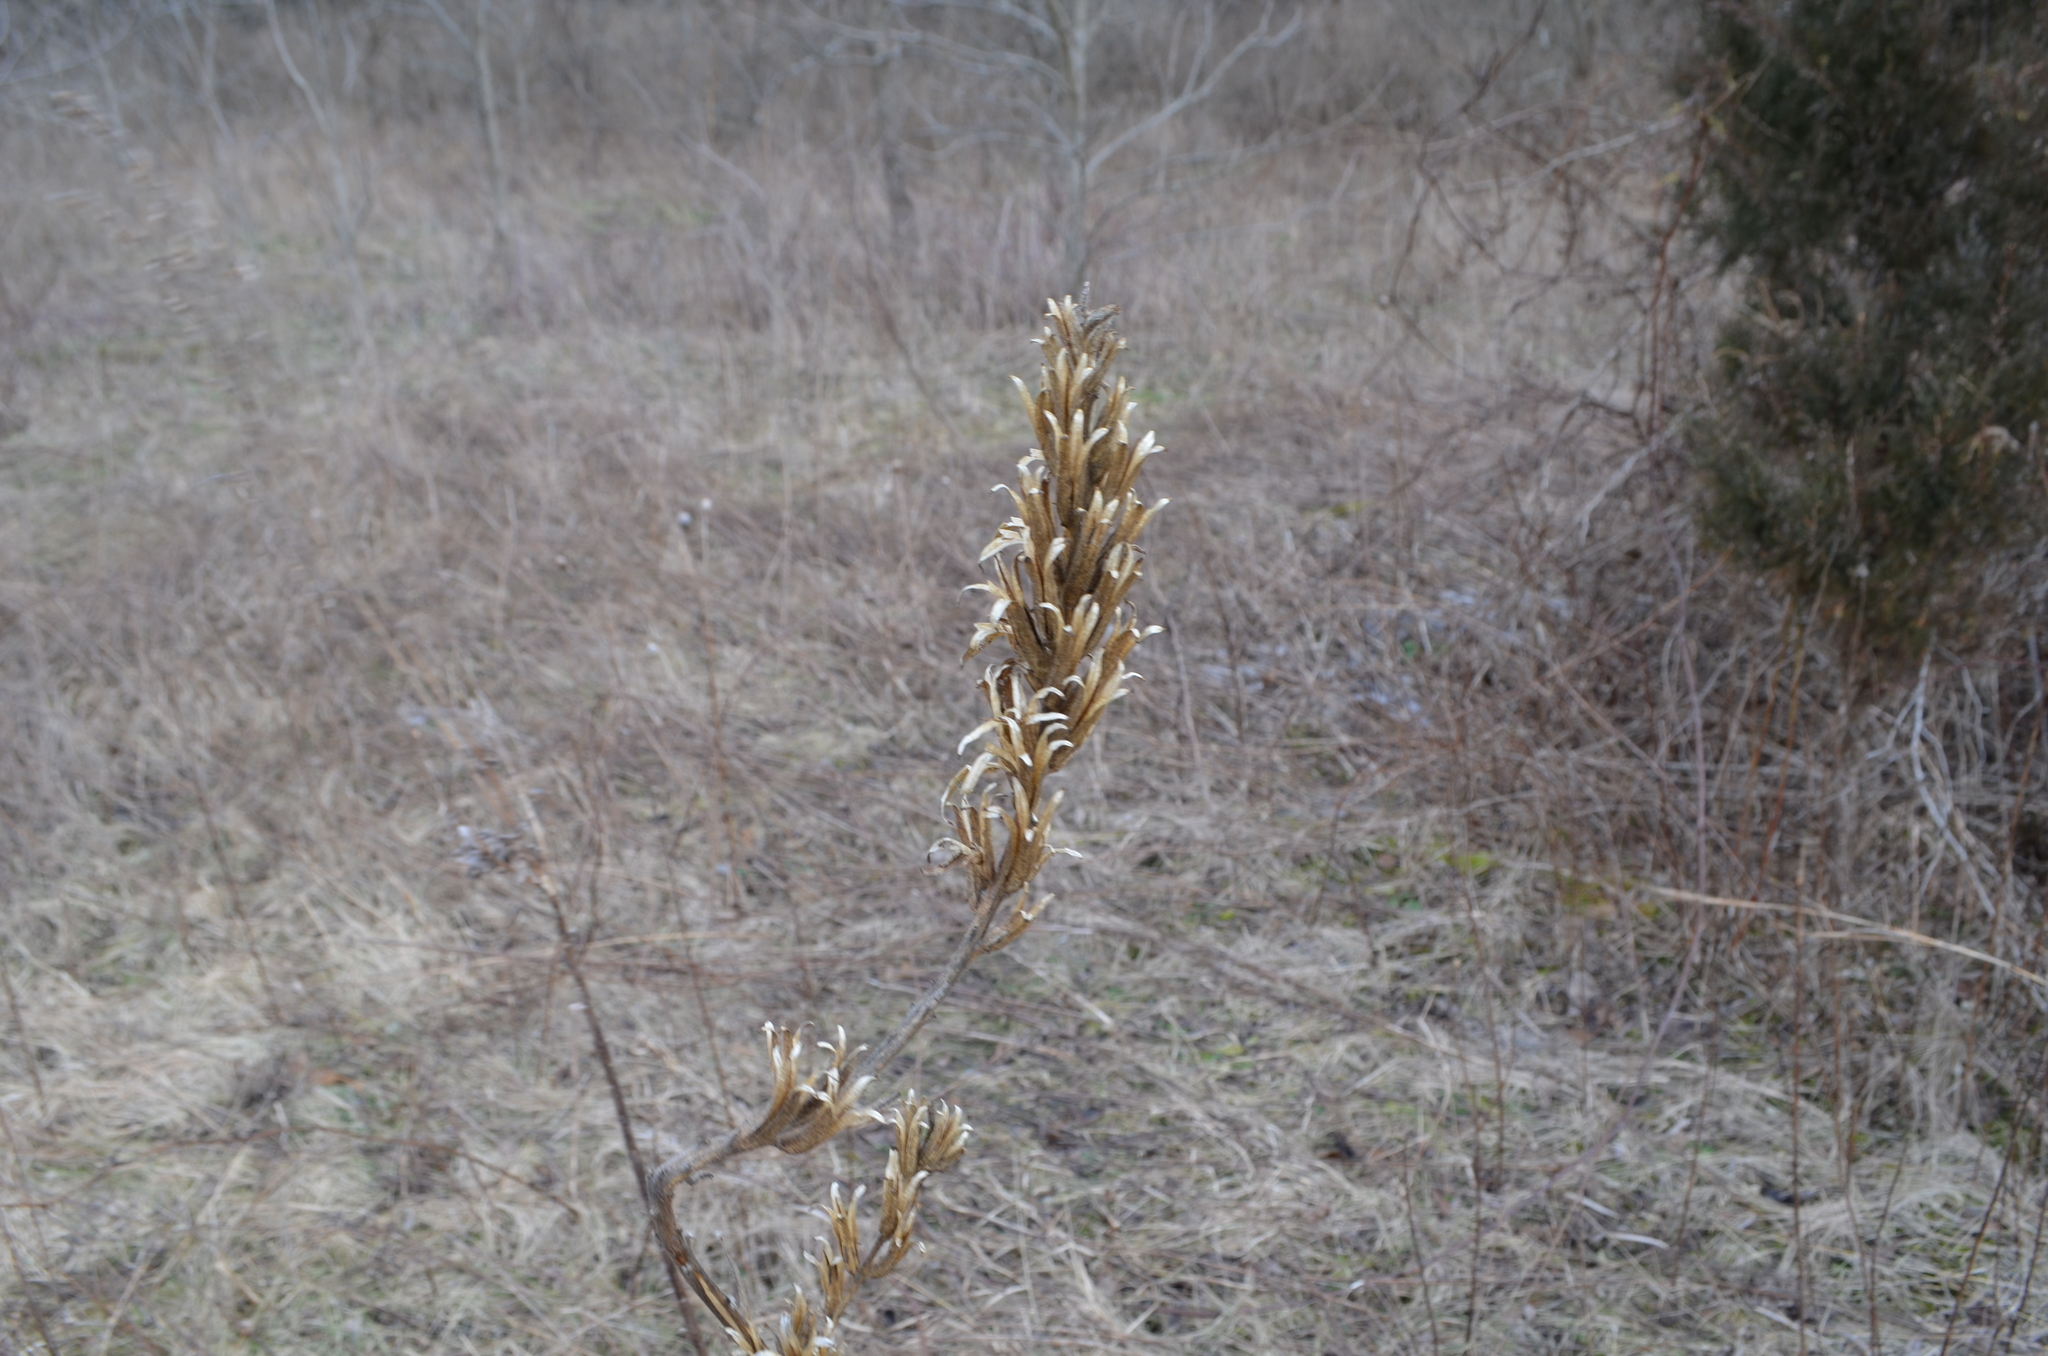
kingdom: Plantae
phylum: Tracheophyta
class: Magnoliopsida
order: Myrtales
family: Onagraceae
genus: Oenothera
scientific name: Oenothera biennis
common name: Common evening-primrose
